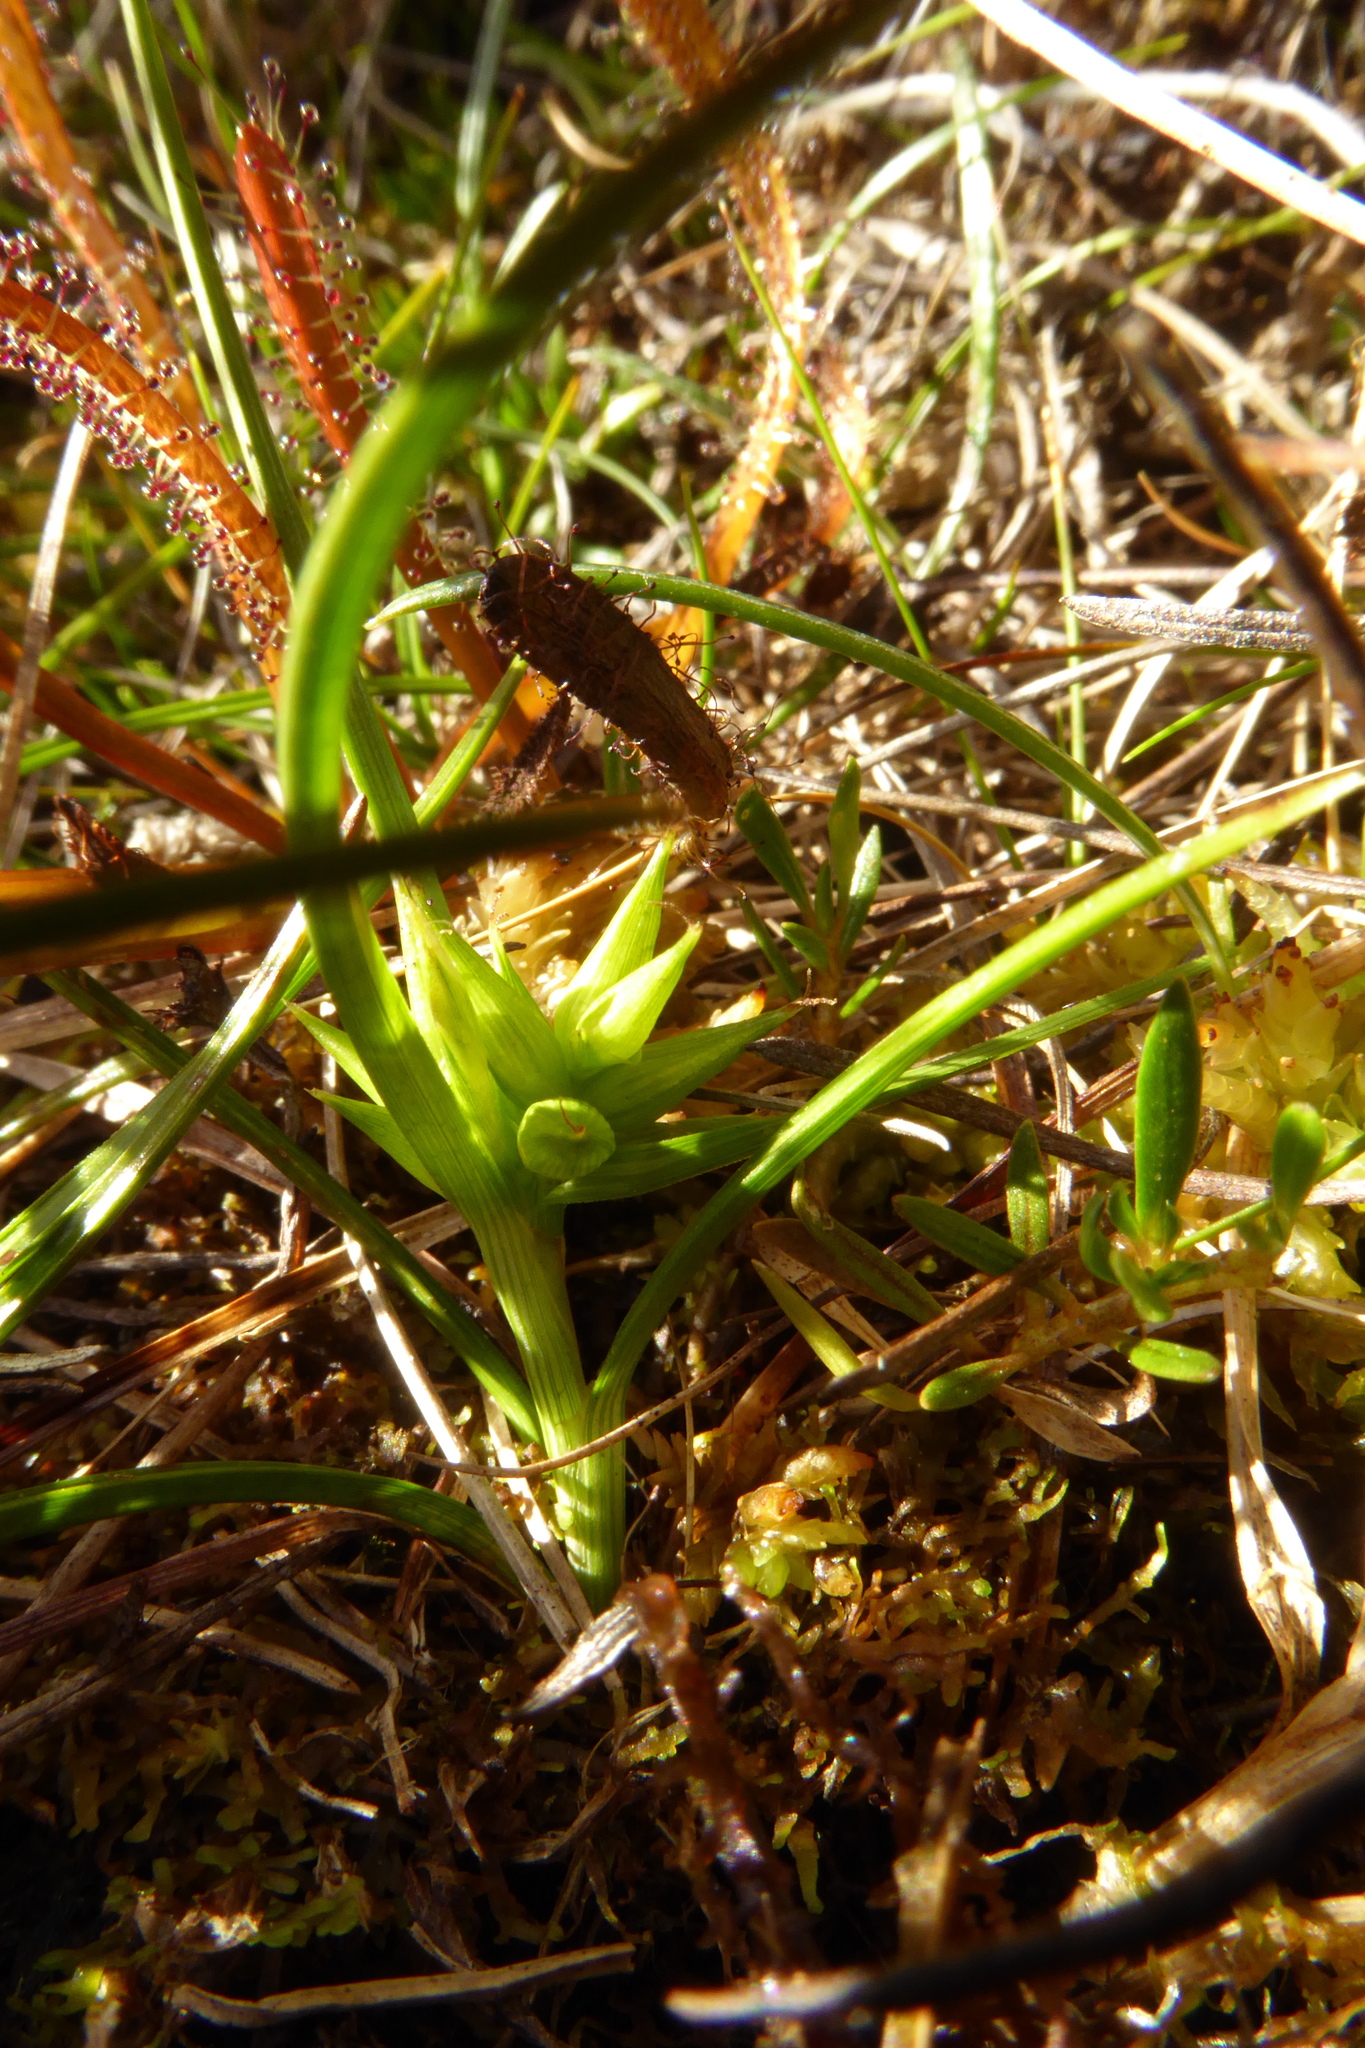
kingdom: Plantae
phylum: Tracheophyta
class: Liliopsida
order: Poales
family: Cyperaceae
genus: Carex
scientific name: Carex carsei
